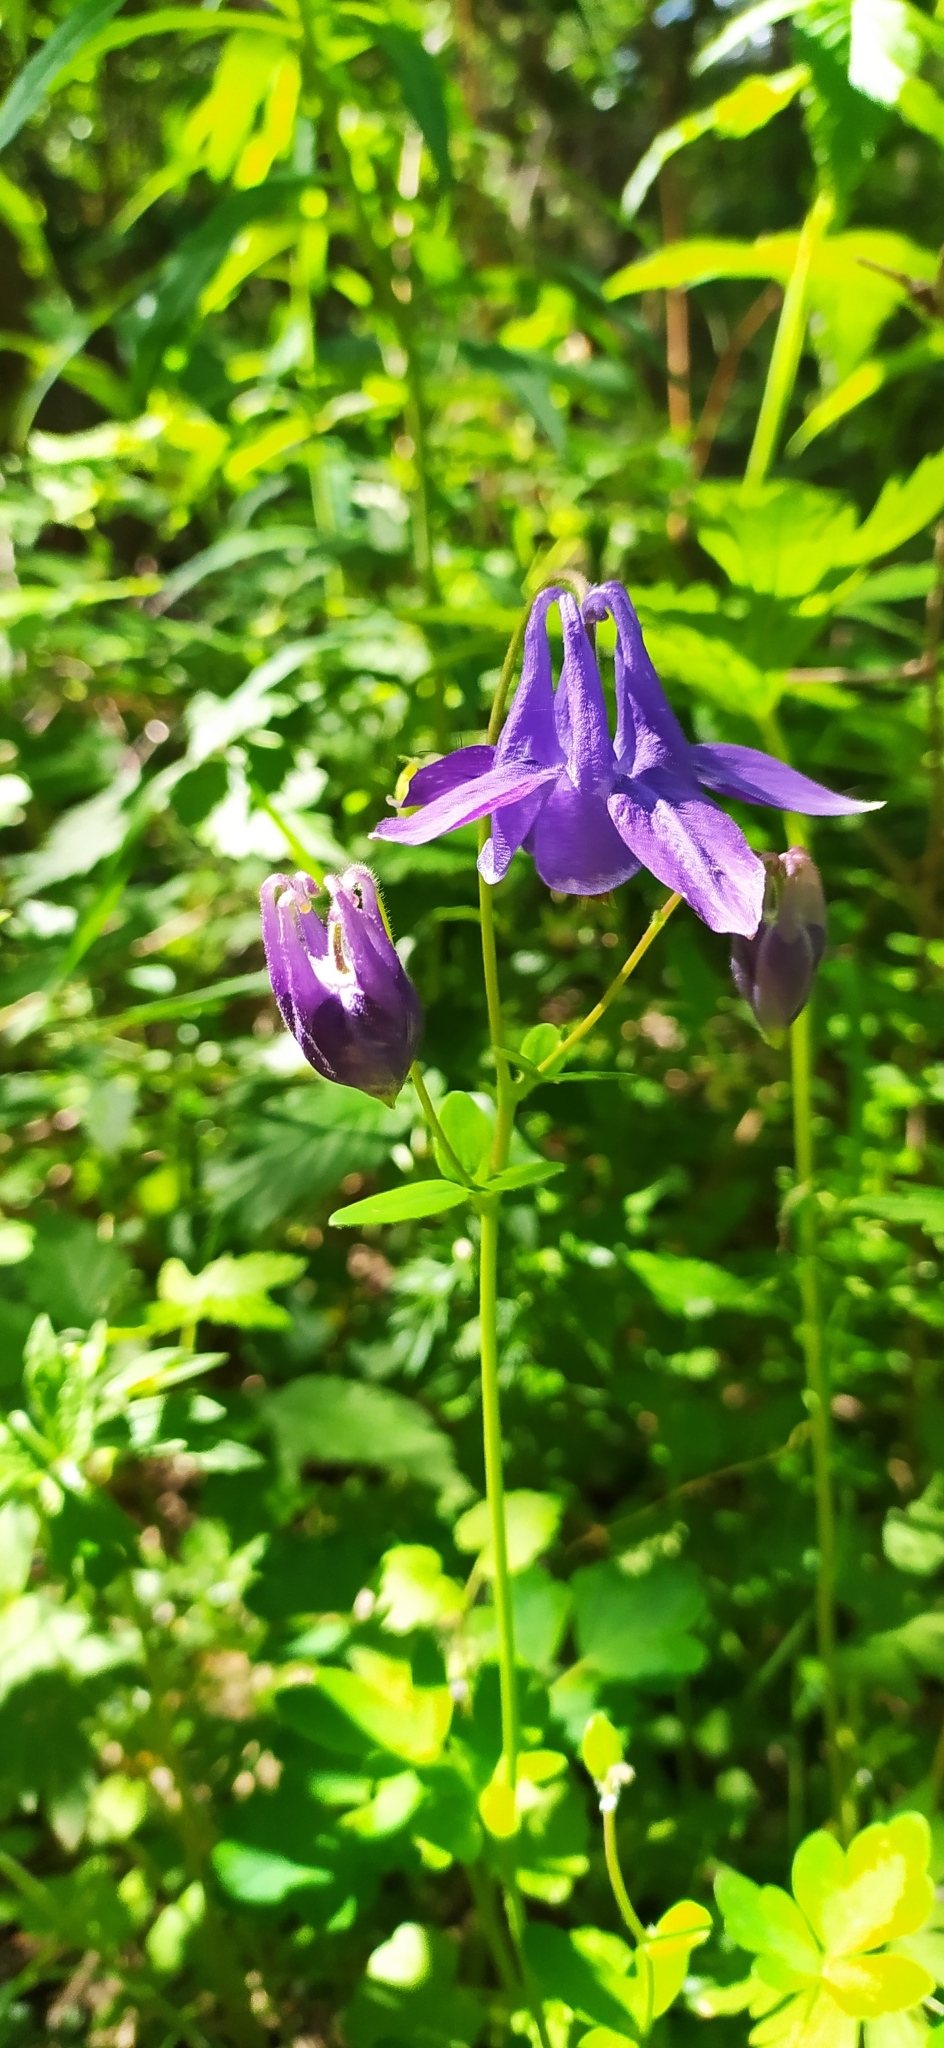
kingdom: Plantae
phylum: Tracheophyta
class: Magnoliopsida
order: Ranunculales
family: Ranunculaceae
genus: Aquilegia
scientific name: Aquilegia vulgaris
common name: Columbine
